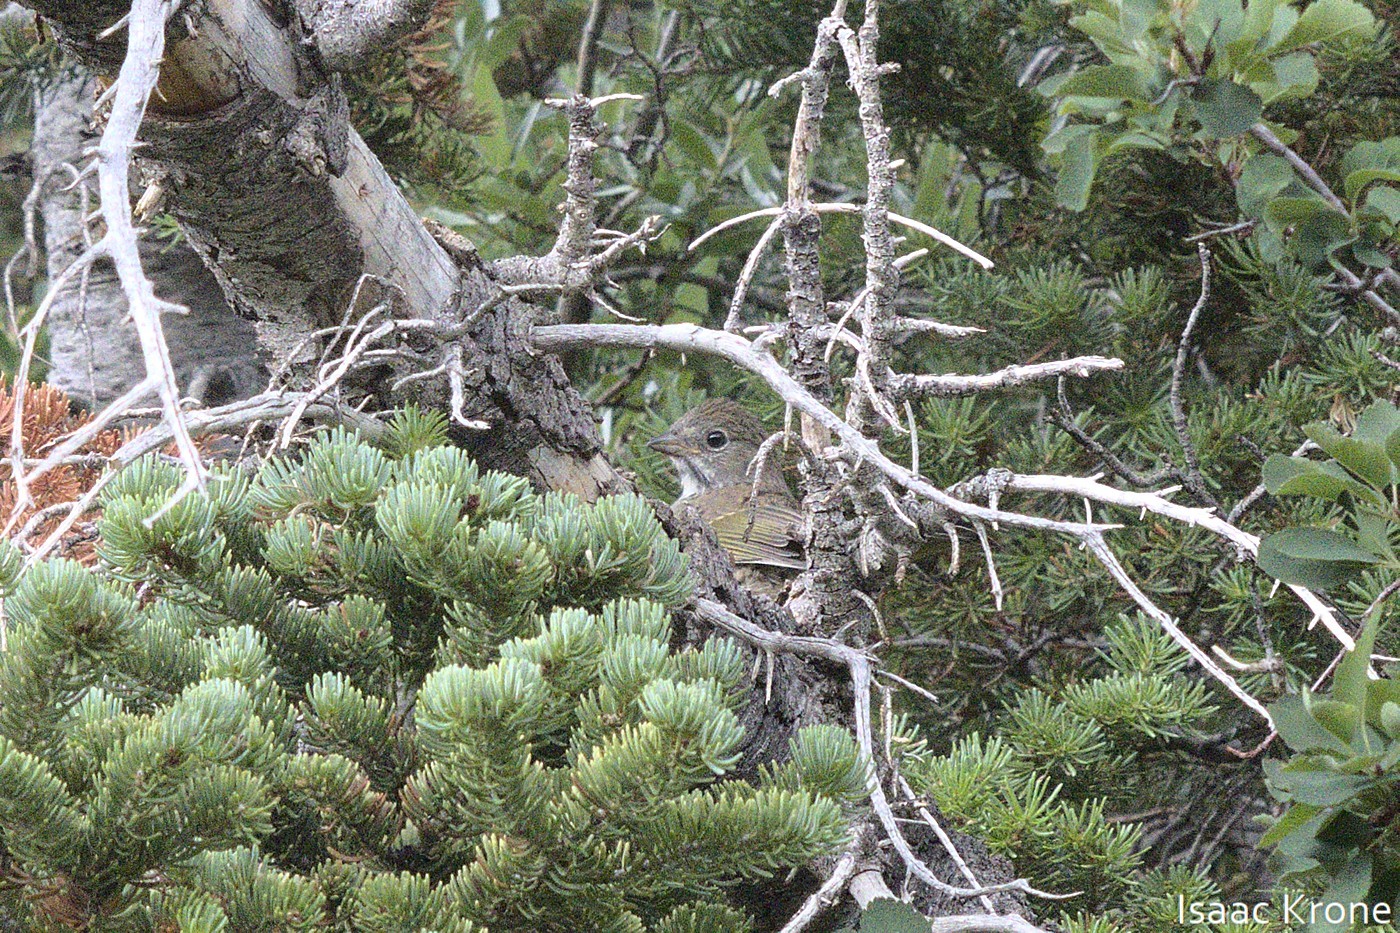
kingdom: Animalia
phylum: Chordata
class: Aves
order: Passeriformes
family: Passerellidae
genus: Pipilo
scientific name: Pipilo chlorurus
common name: Green-tailed towhee
